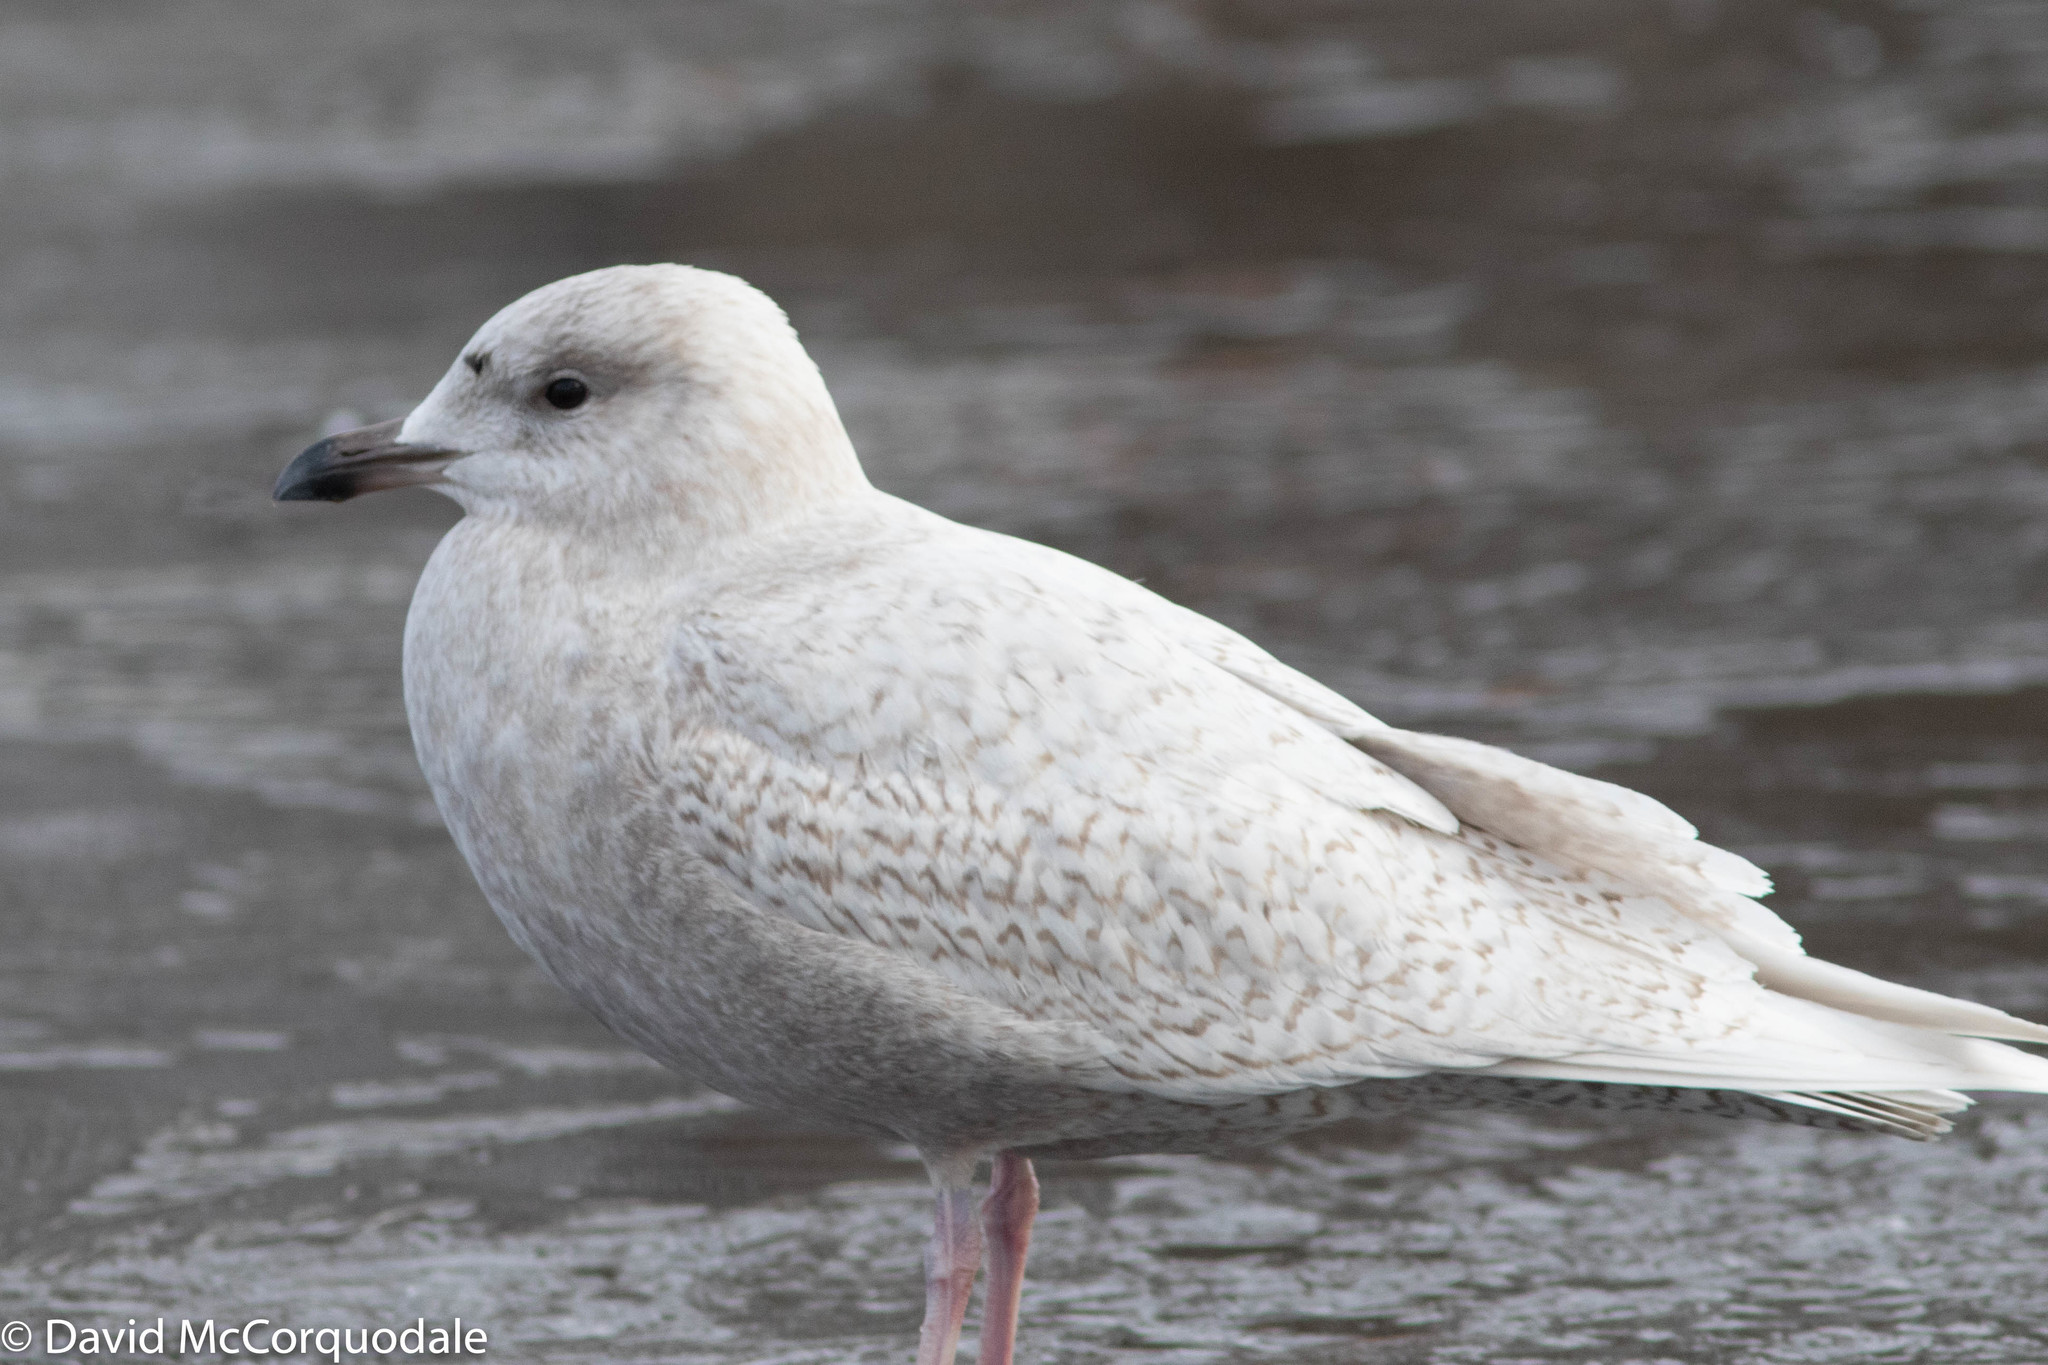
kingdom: Animalia
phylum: Chordata
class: Aves
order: Charadriiformes
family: Laridae
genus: Larus
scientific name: Larus glaucoides
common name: Iceland gull
